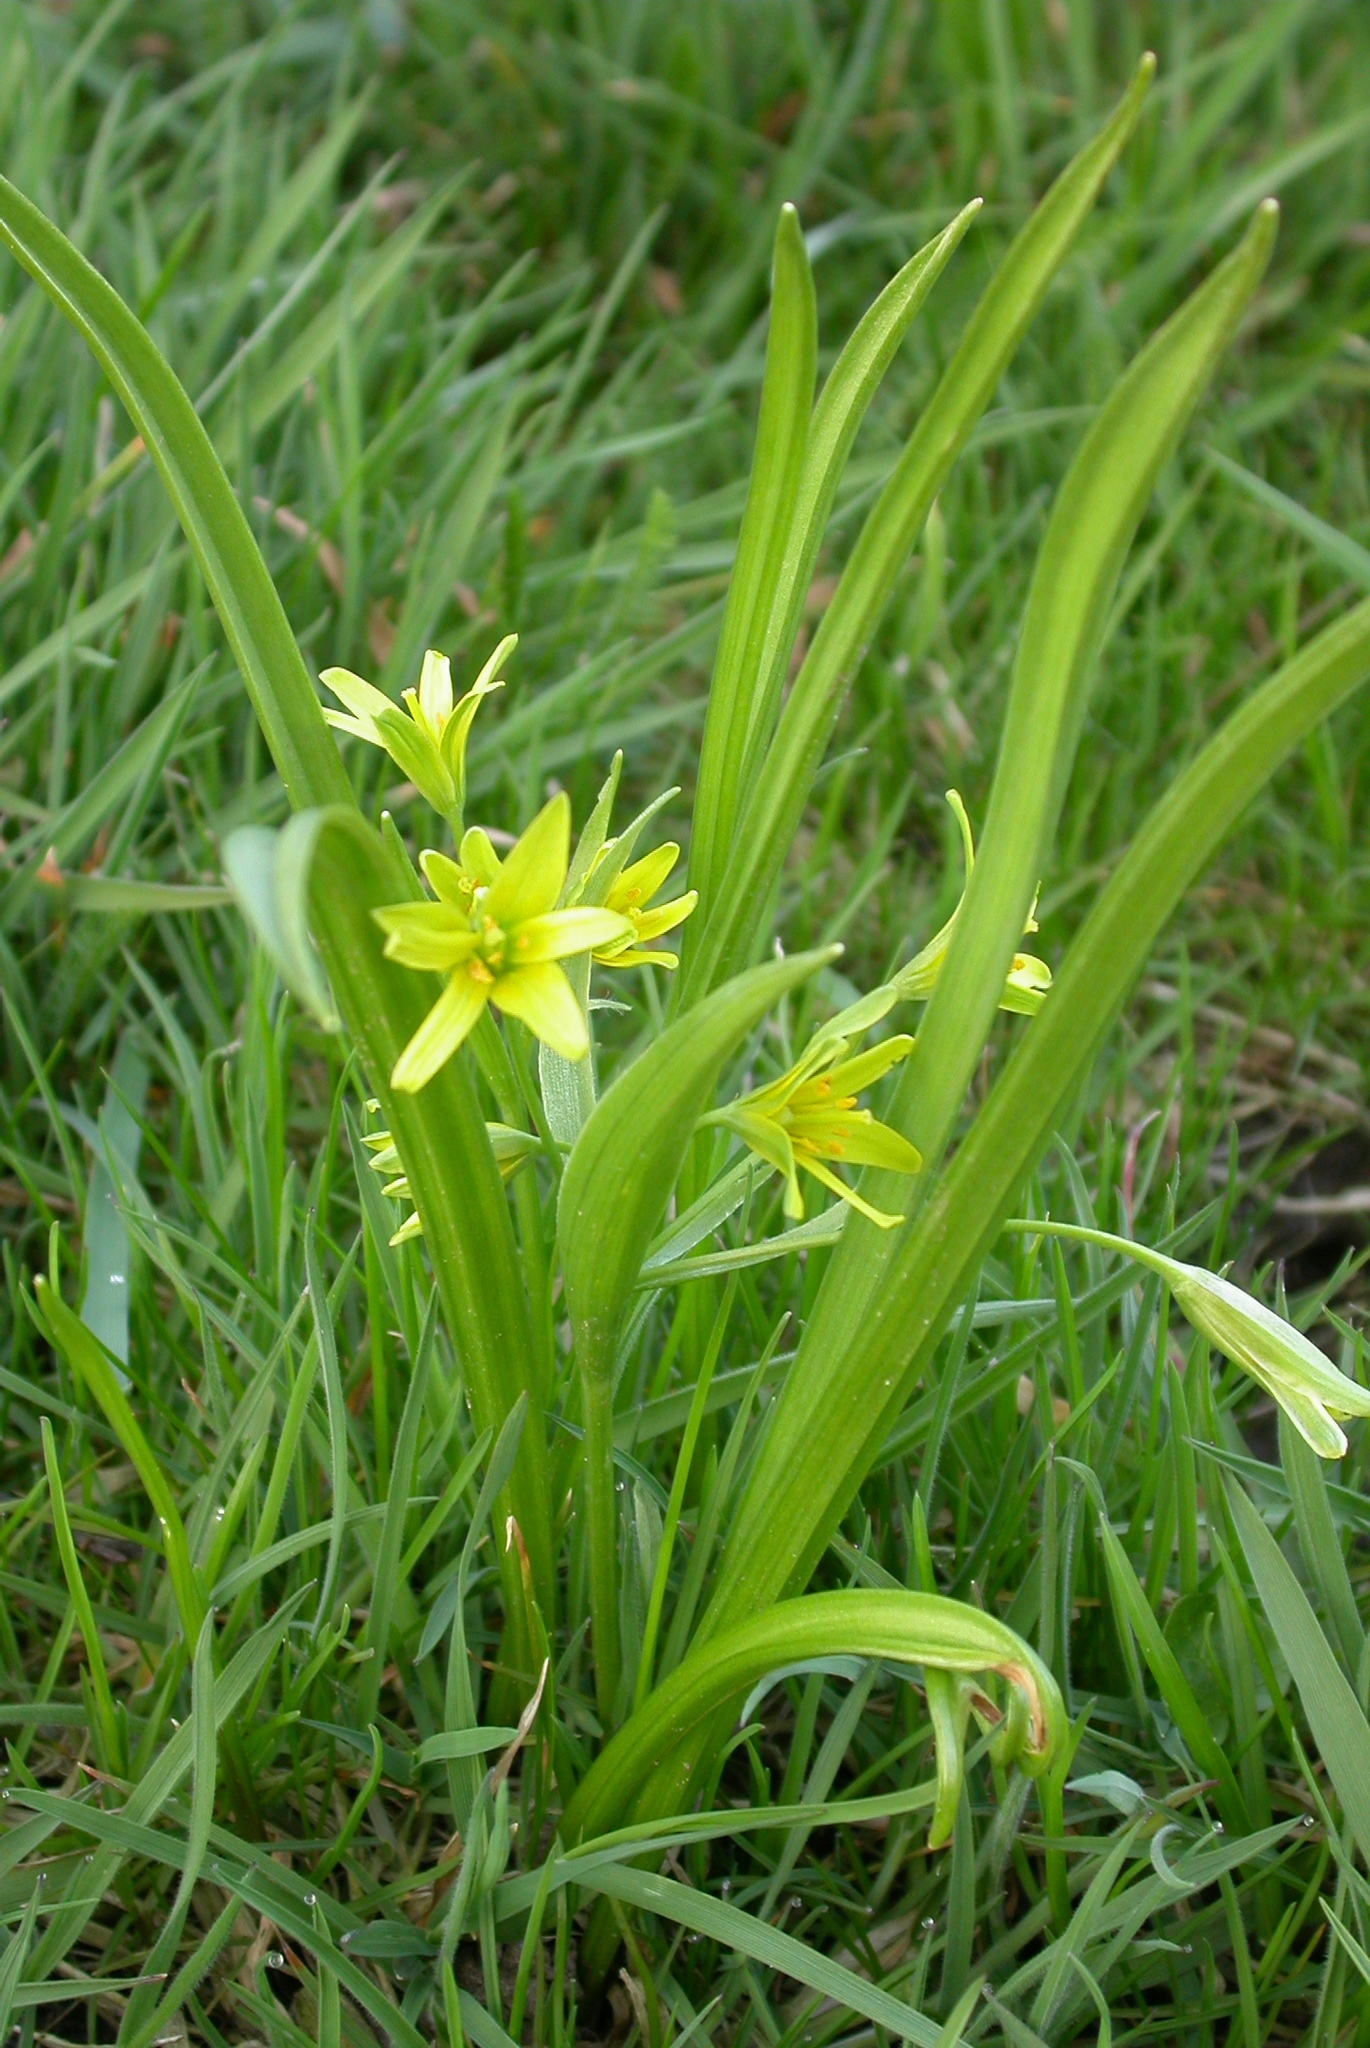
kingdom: Plantae
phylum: Tracheophyta
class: Liliopsida
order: Liliales
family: Liliaceae
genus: Gagea
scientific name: Gagea lutea
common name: Yellow star-of-bethlehem
